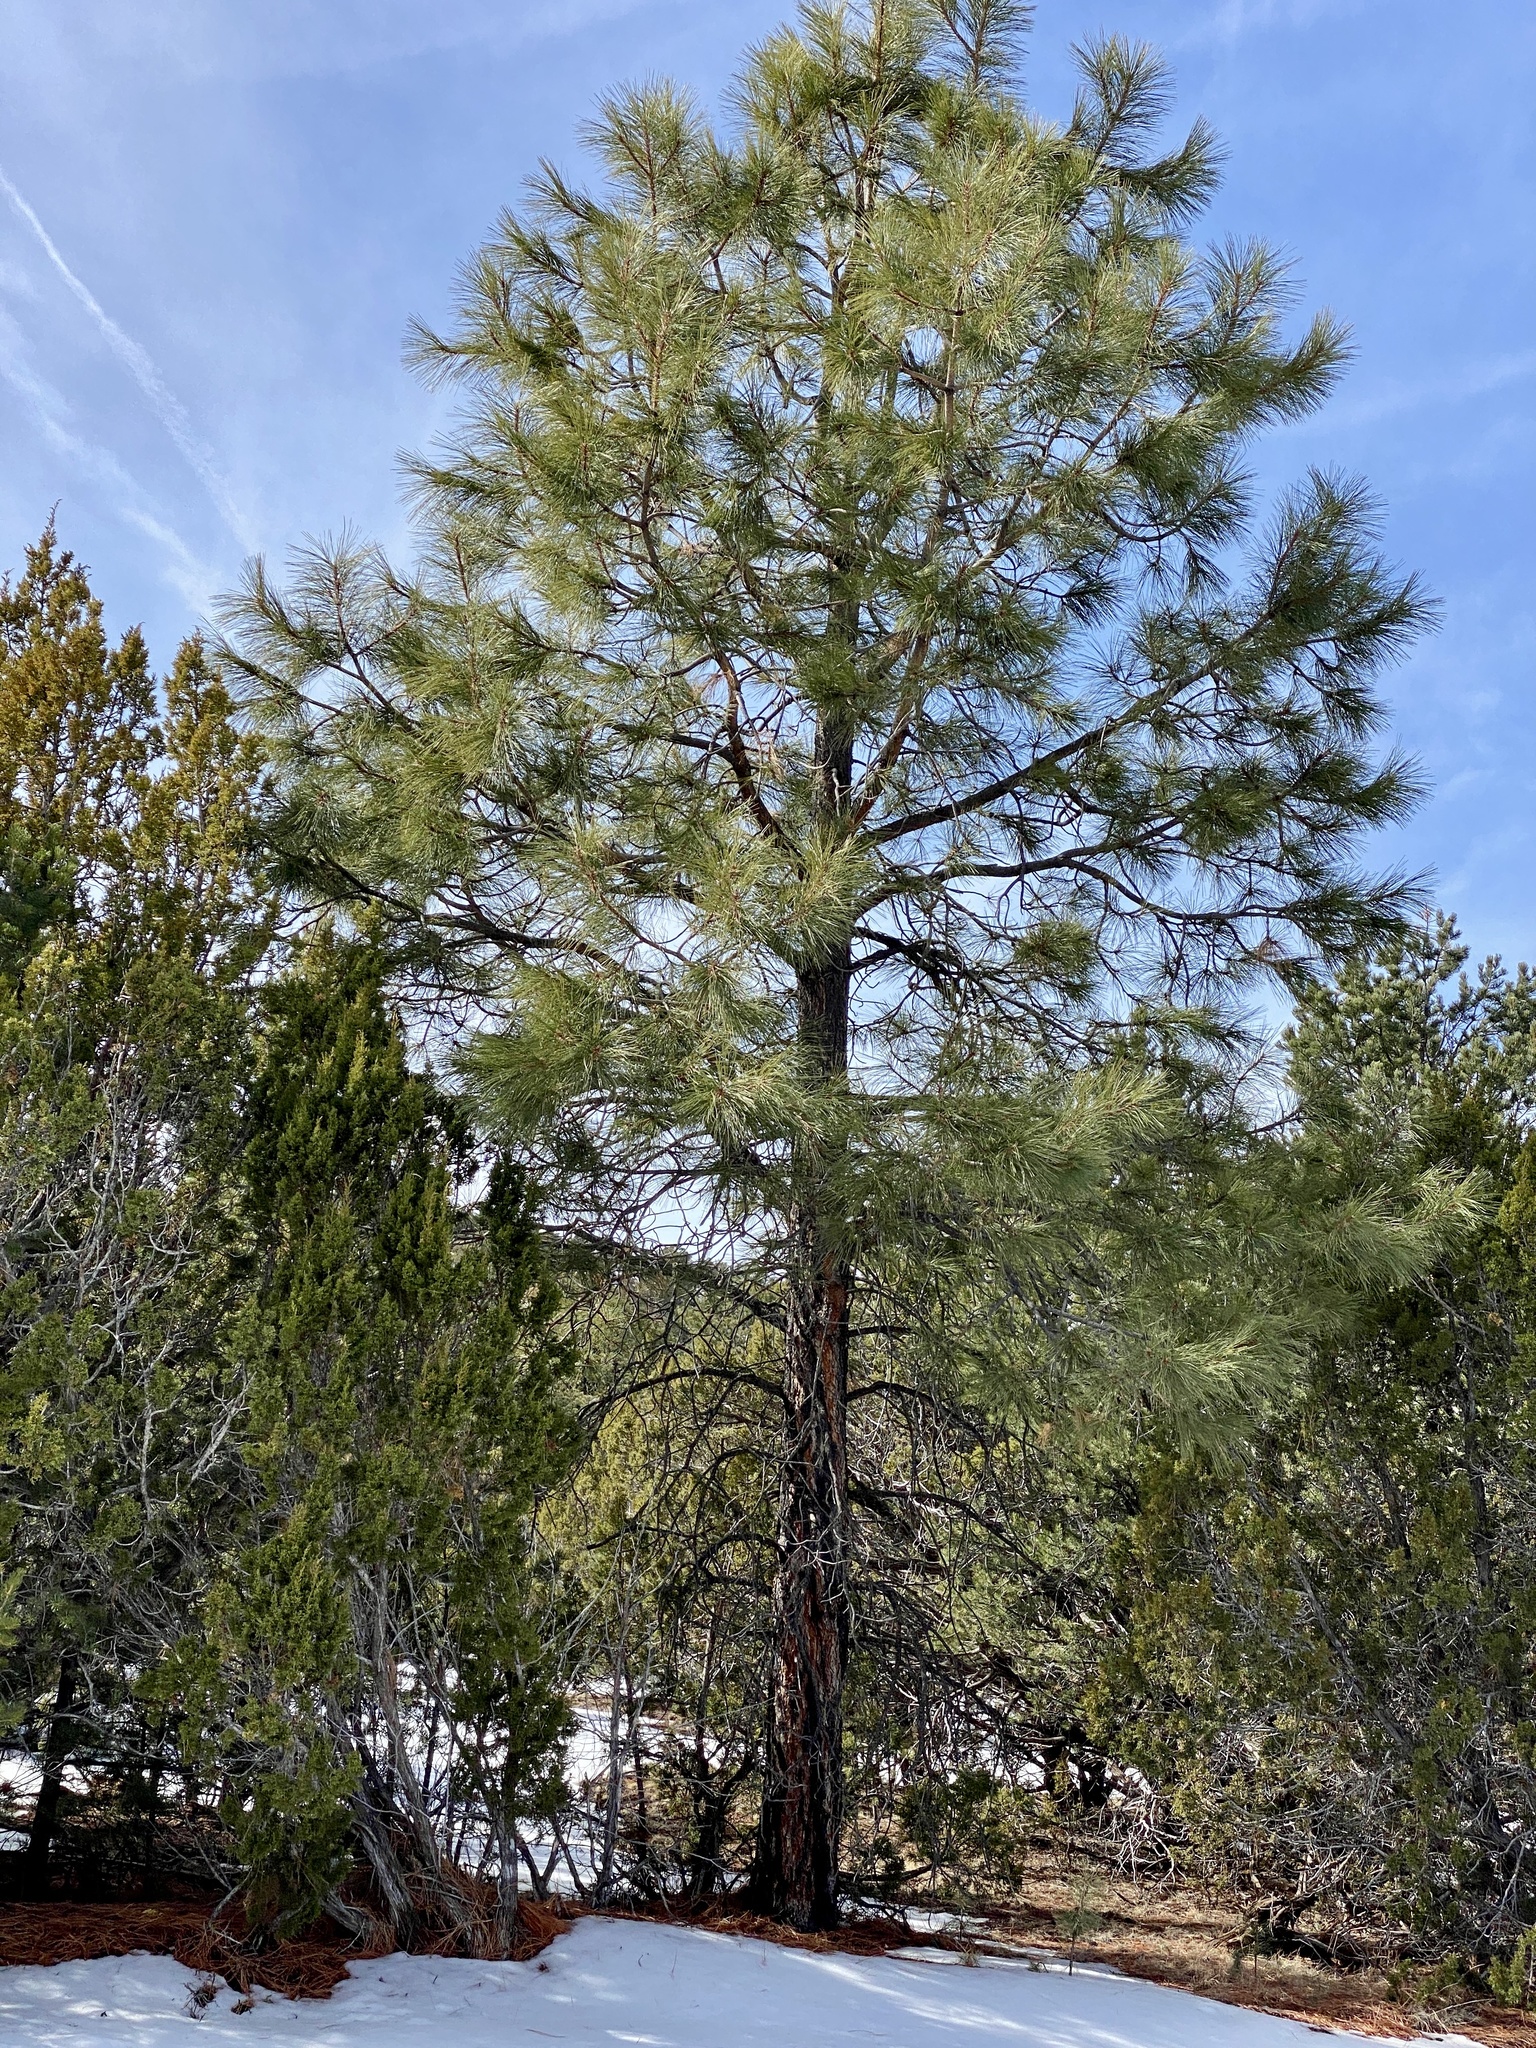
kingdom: Plantae
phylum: Tracheophyta
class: Pinopsida
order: Pinales
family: Pinaceae
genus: Pinus
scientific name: Pinus ponderosa
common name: Western yellow-pine
